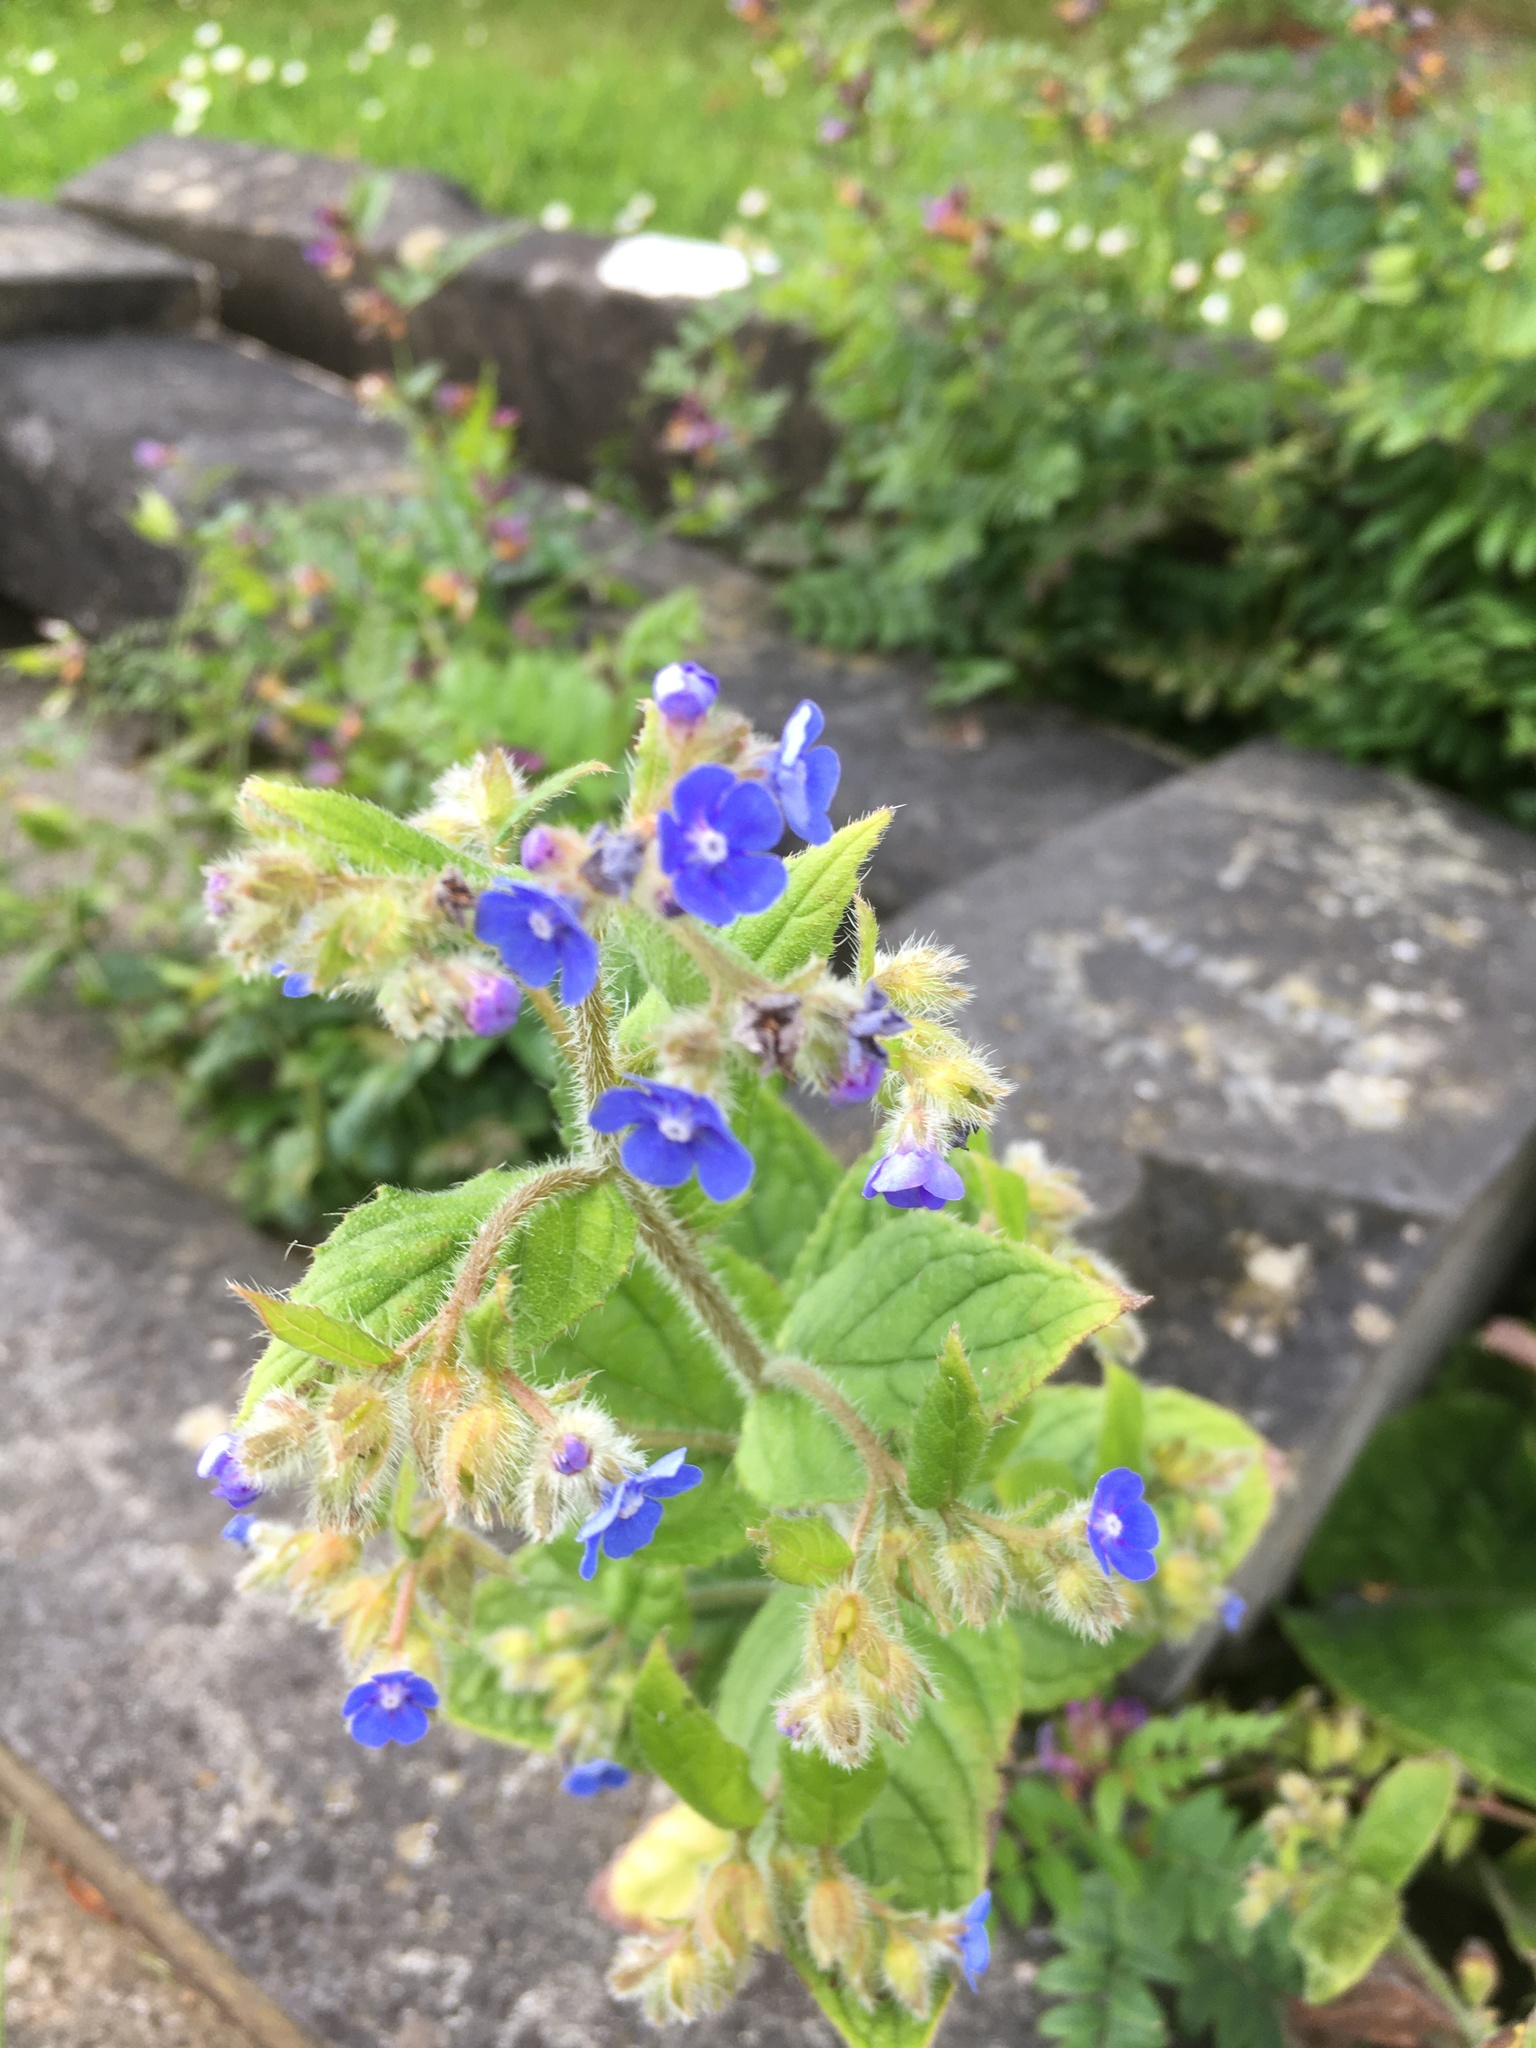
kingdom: Plantae
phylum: Tracheophyta
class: Magnoliopsida
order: Boraginales
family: Boraginaceae
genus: Pentaglottis
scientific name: Pentaglottis sempervirens
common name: Green alkanet
